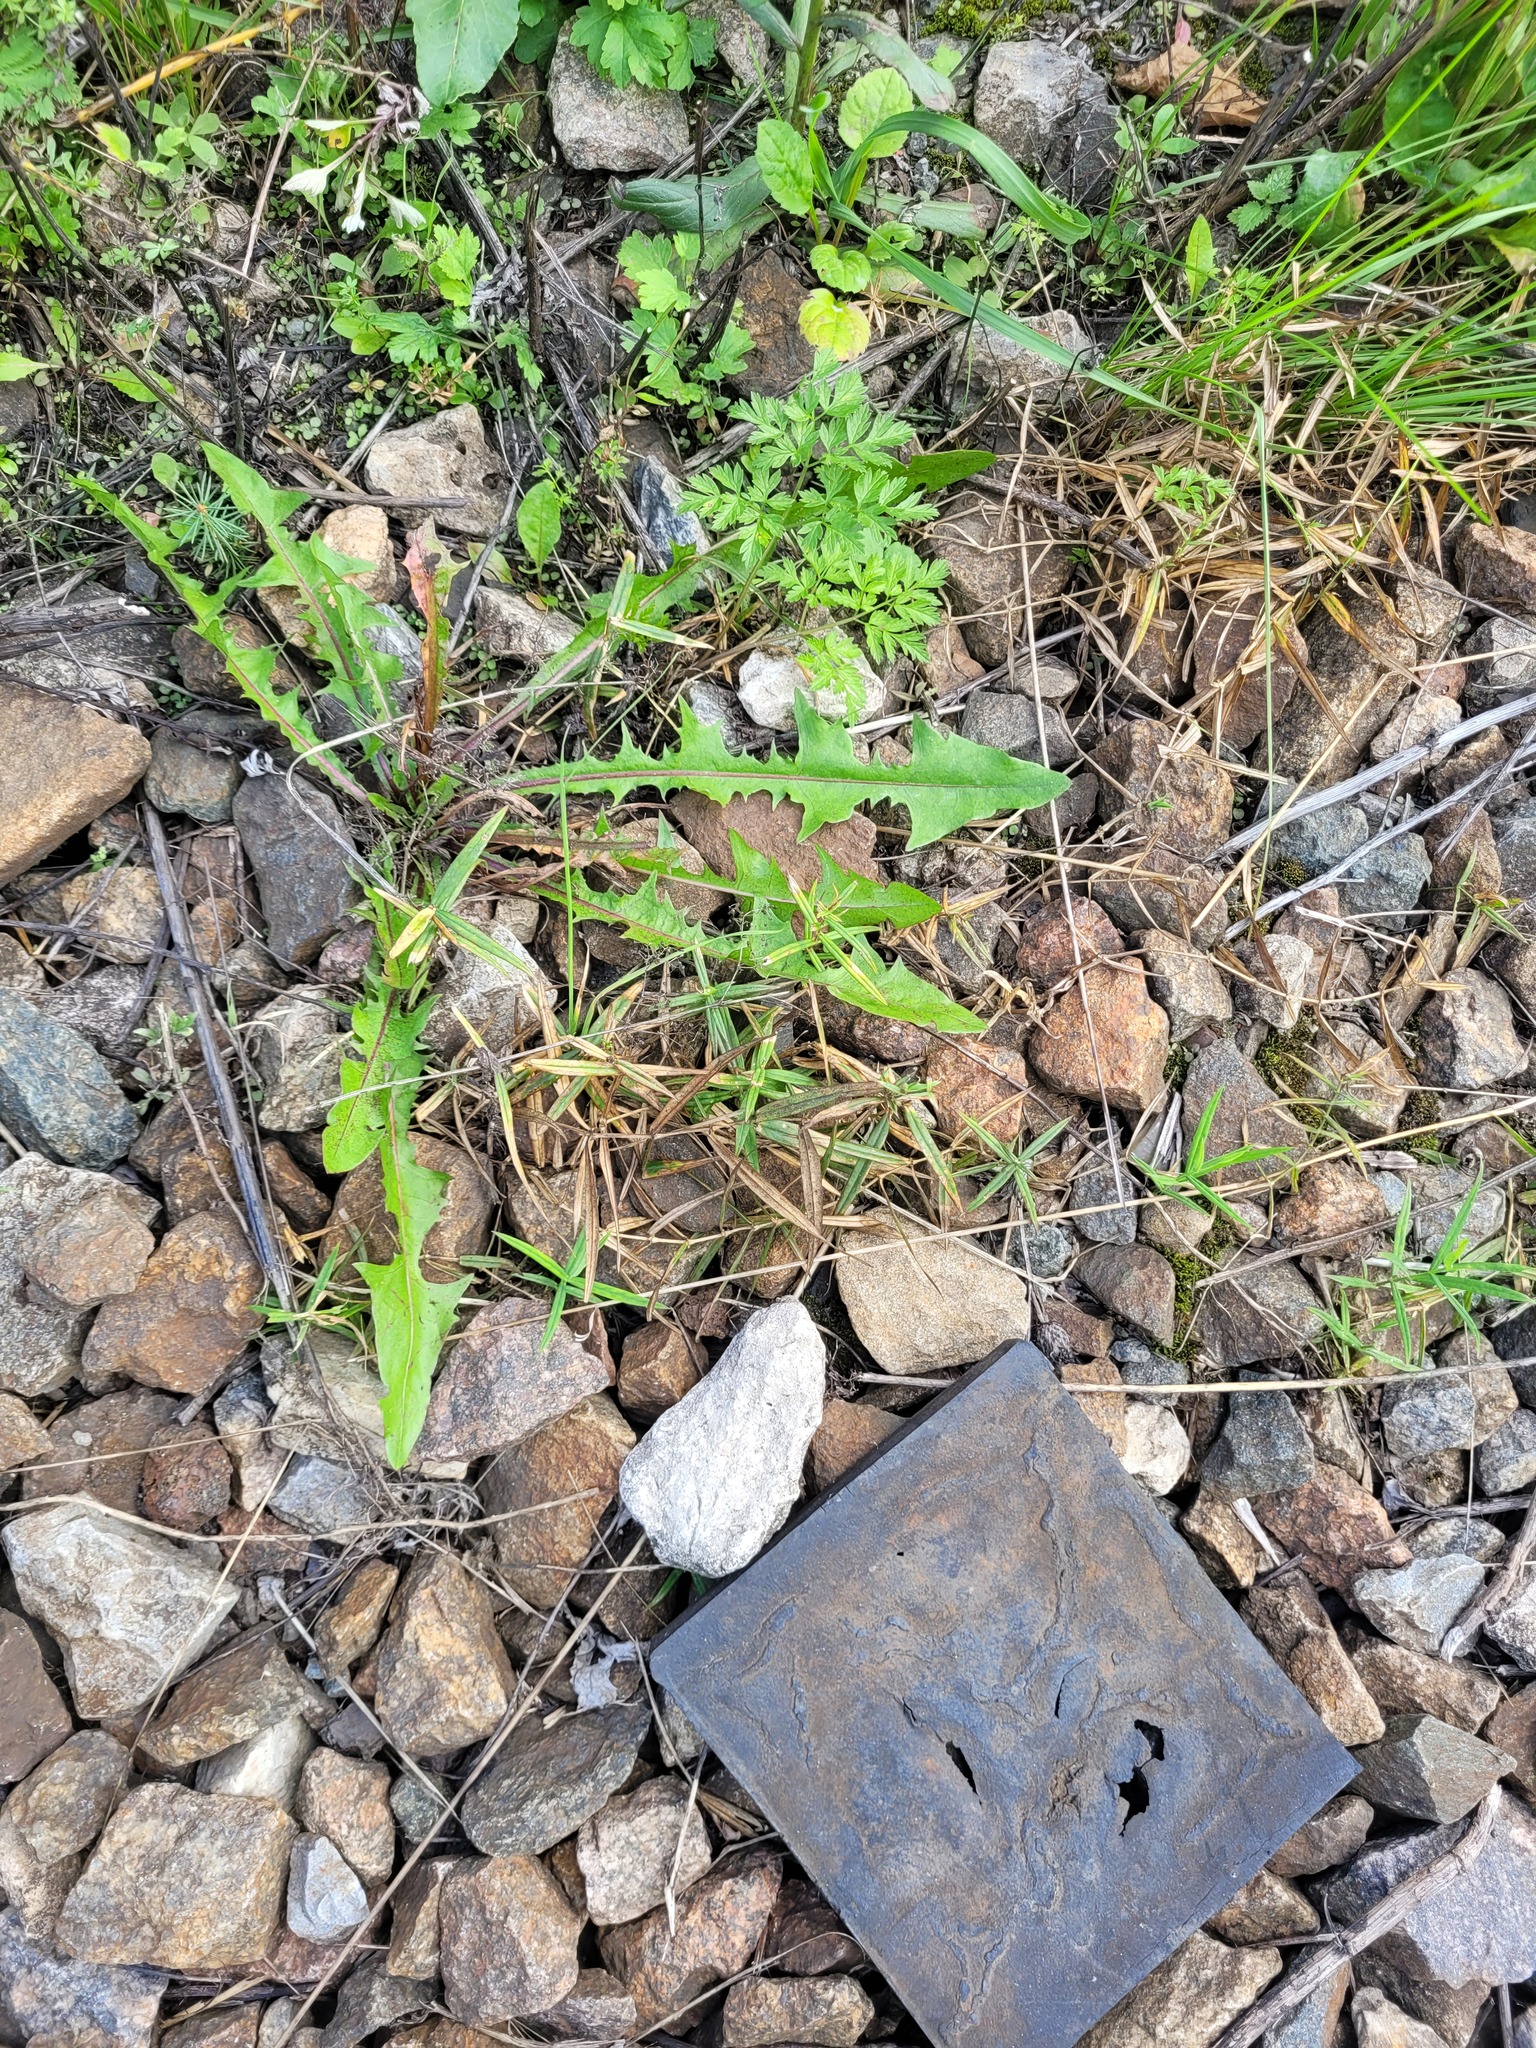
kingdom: Plantae
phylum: Tracheophyta
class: Magnoliopsida
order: Caryophyllales
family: Caryophyllaceae
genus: Rabelera
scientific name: Rabelera holostea
